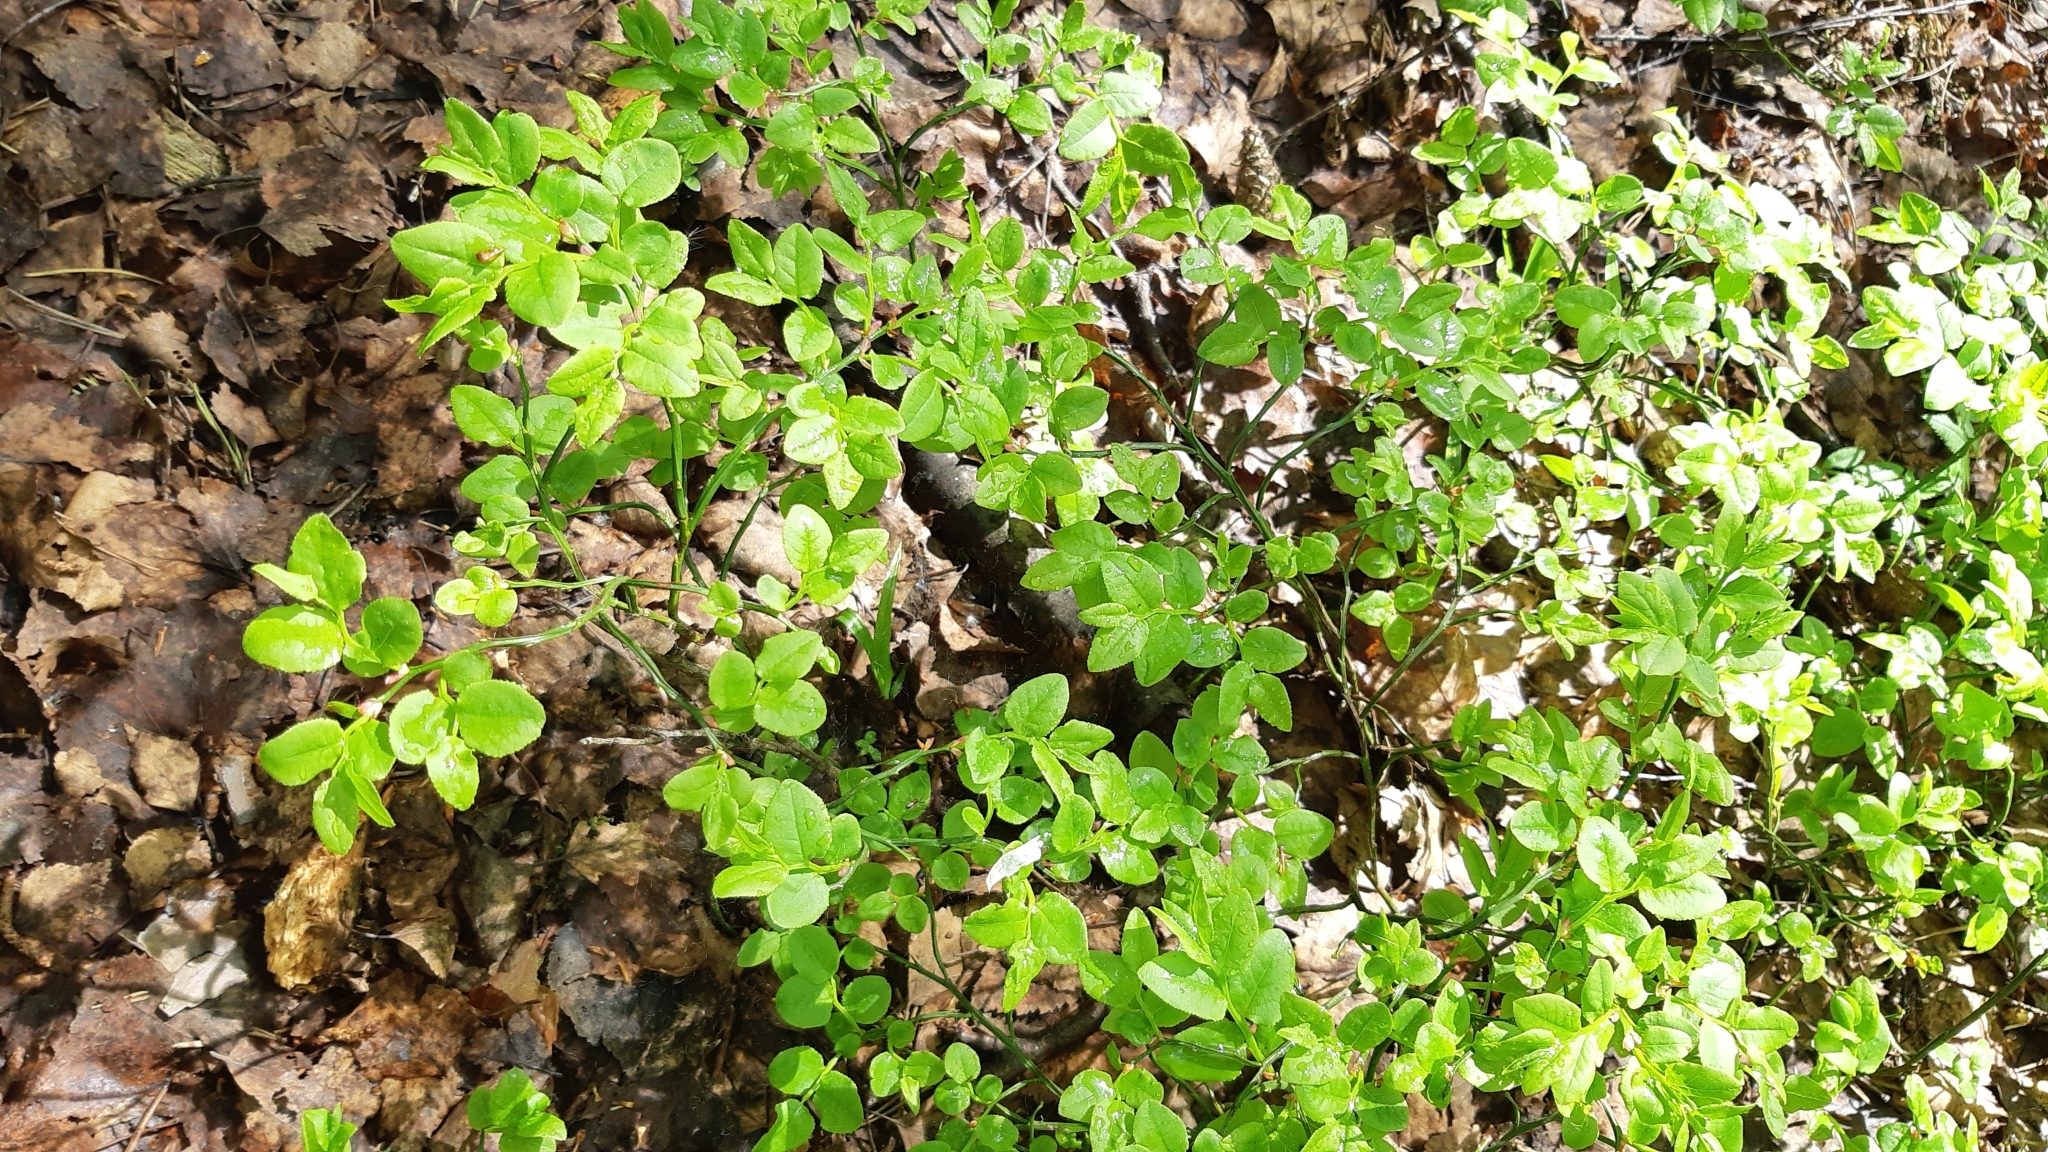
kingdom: Plantae
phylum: Tracheophyta
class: Magnoliopsida
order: Ericales
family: Ericaceae
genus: Vaccinium
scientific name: Vaccinium myrtillus
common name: Bilberry
